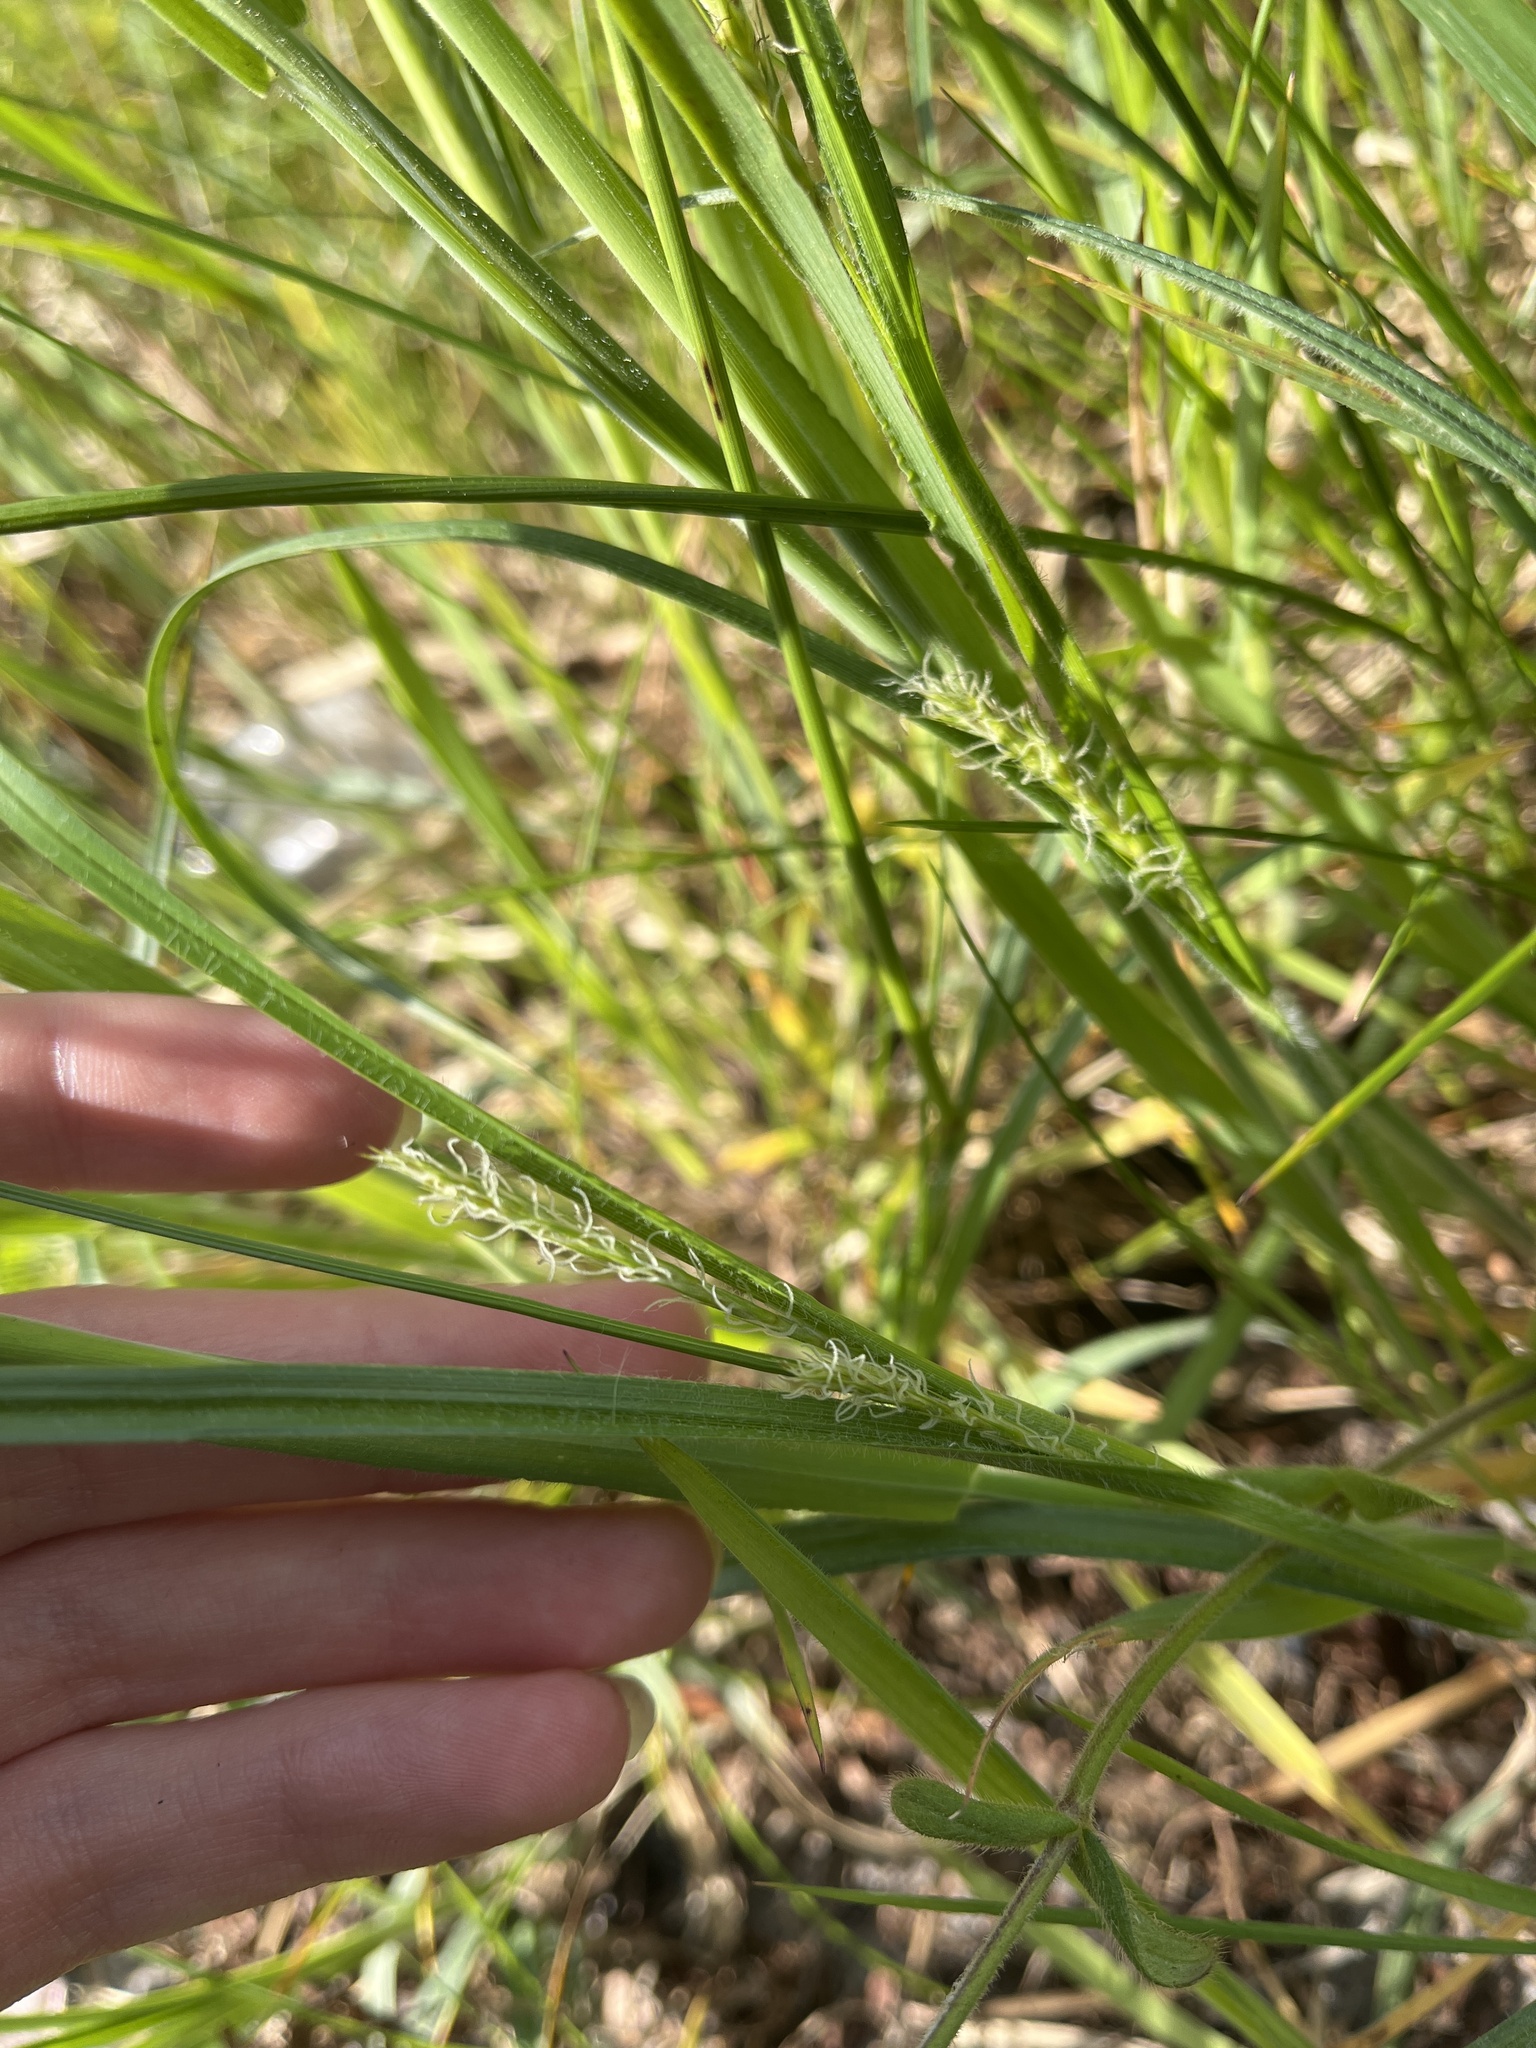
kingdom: Plantae
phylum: Tracheophyta
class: Liliopsida
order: Poales
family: Cyperaceae
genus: Carex
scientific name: Carex hirta
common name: Hairy sedge
